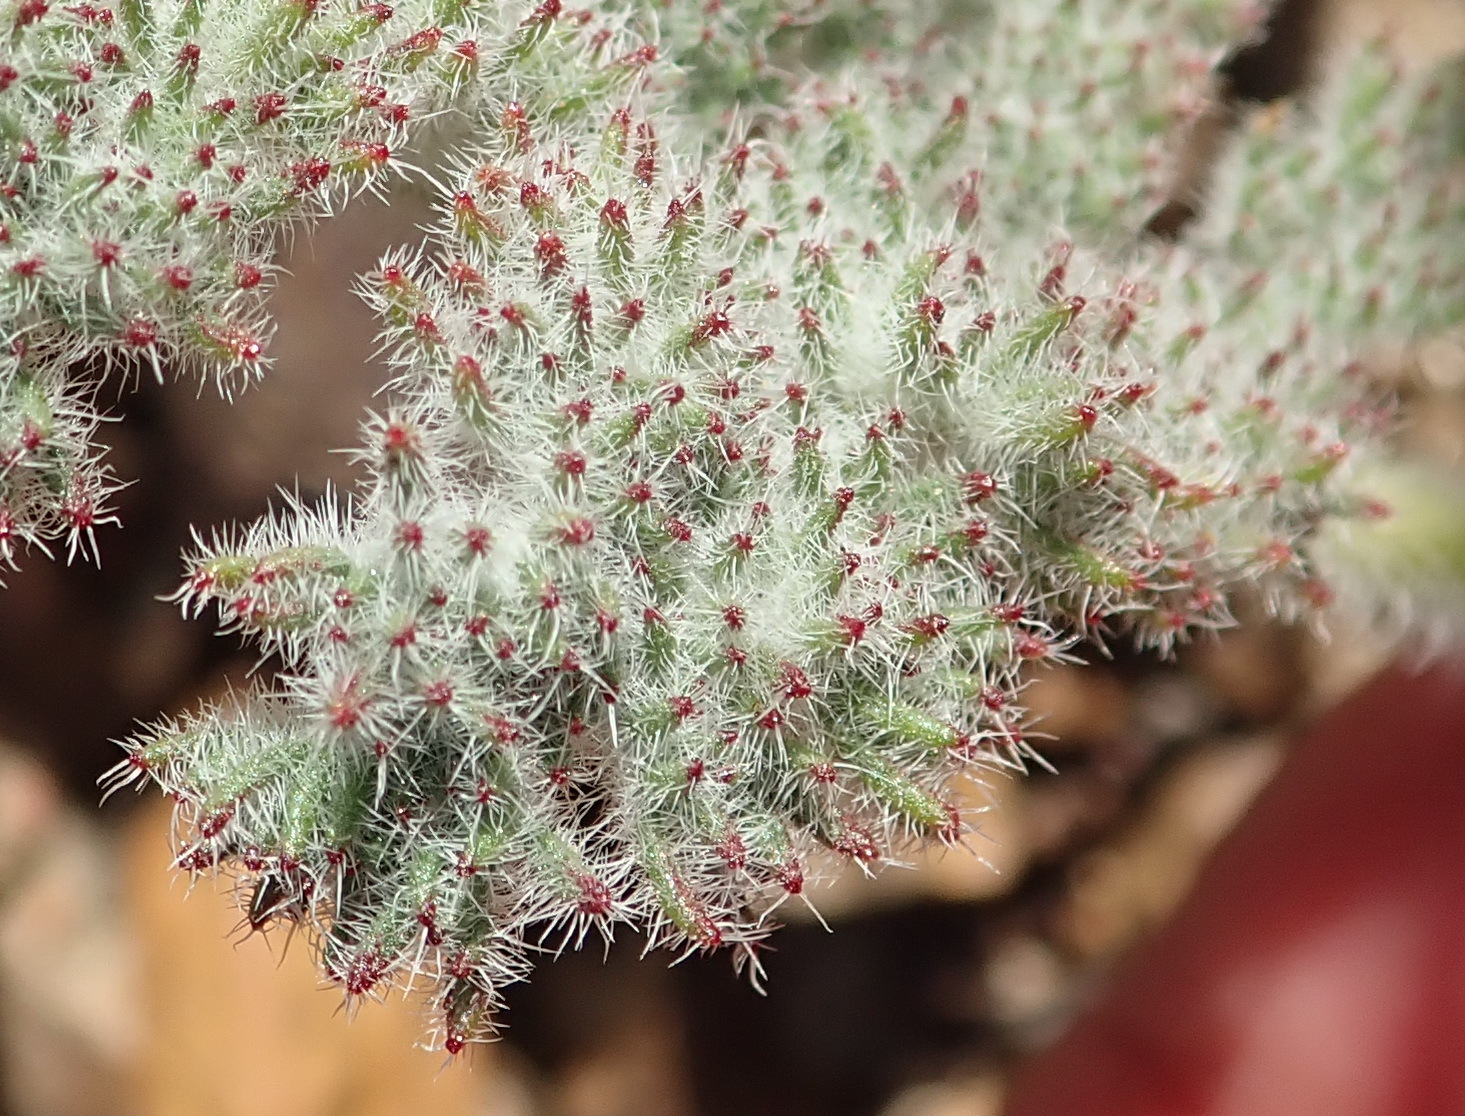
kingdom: Plantae
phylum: Tracheophyta
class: Magnoliopsida
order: Geraniales
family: Geraniaceae
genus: Pelargonium
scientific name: Pelargonium triste
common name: Night-scent pelargonium
